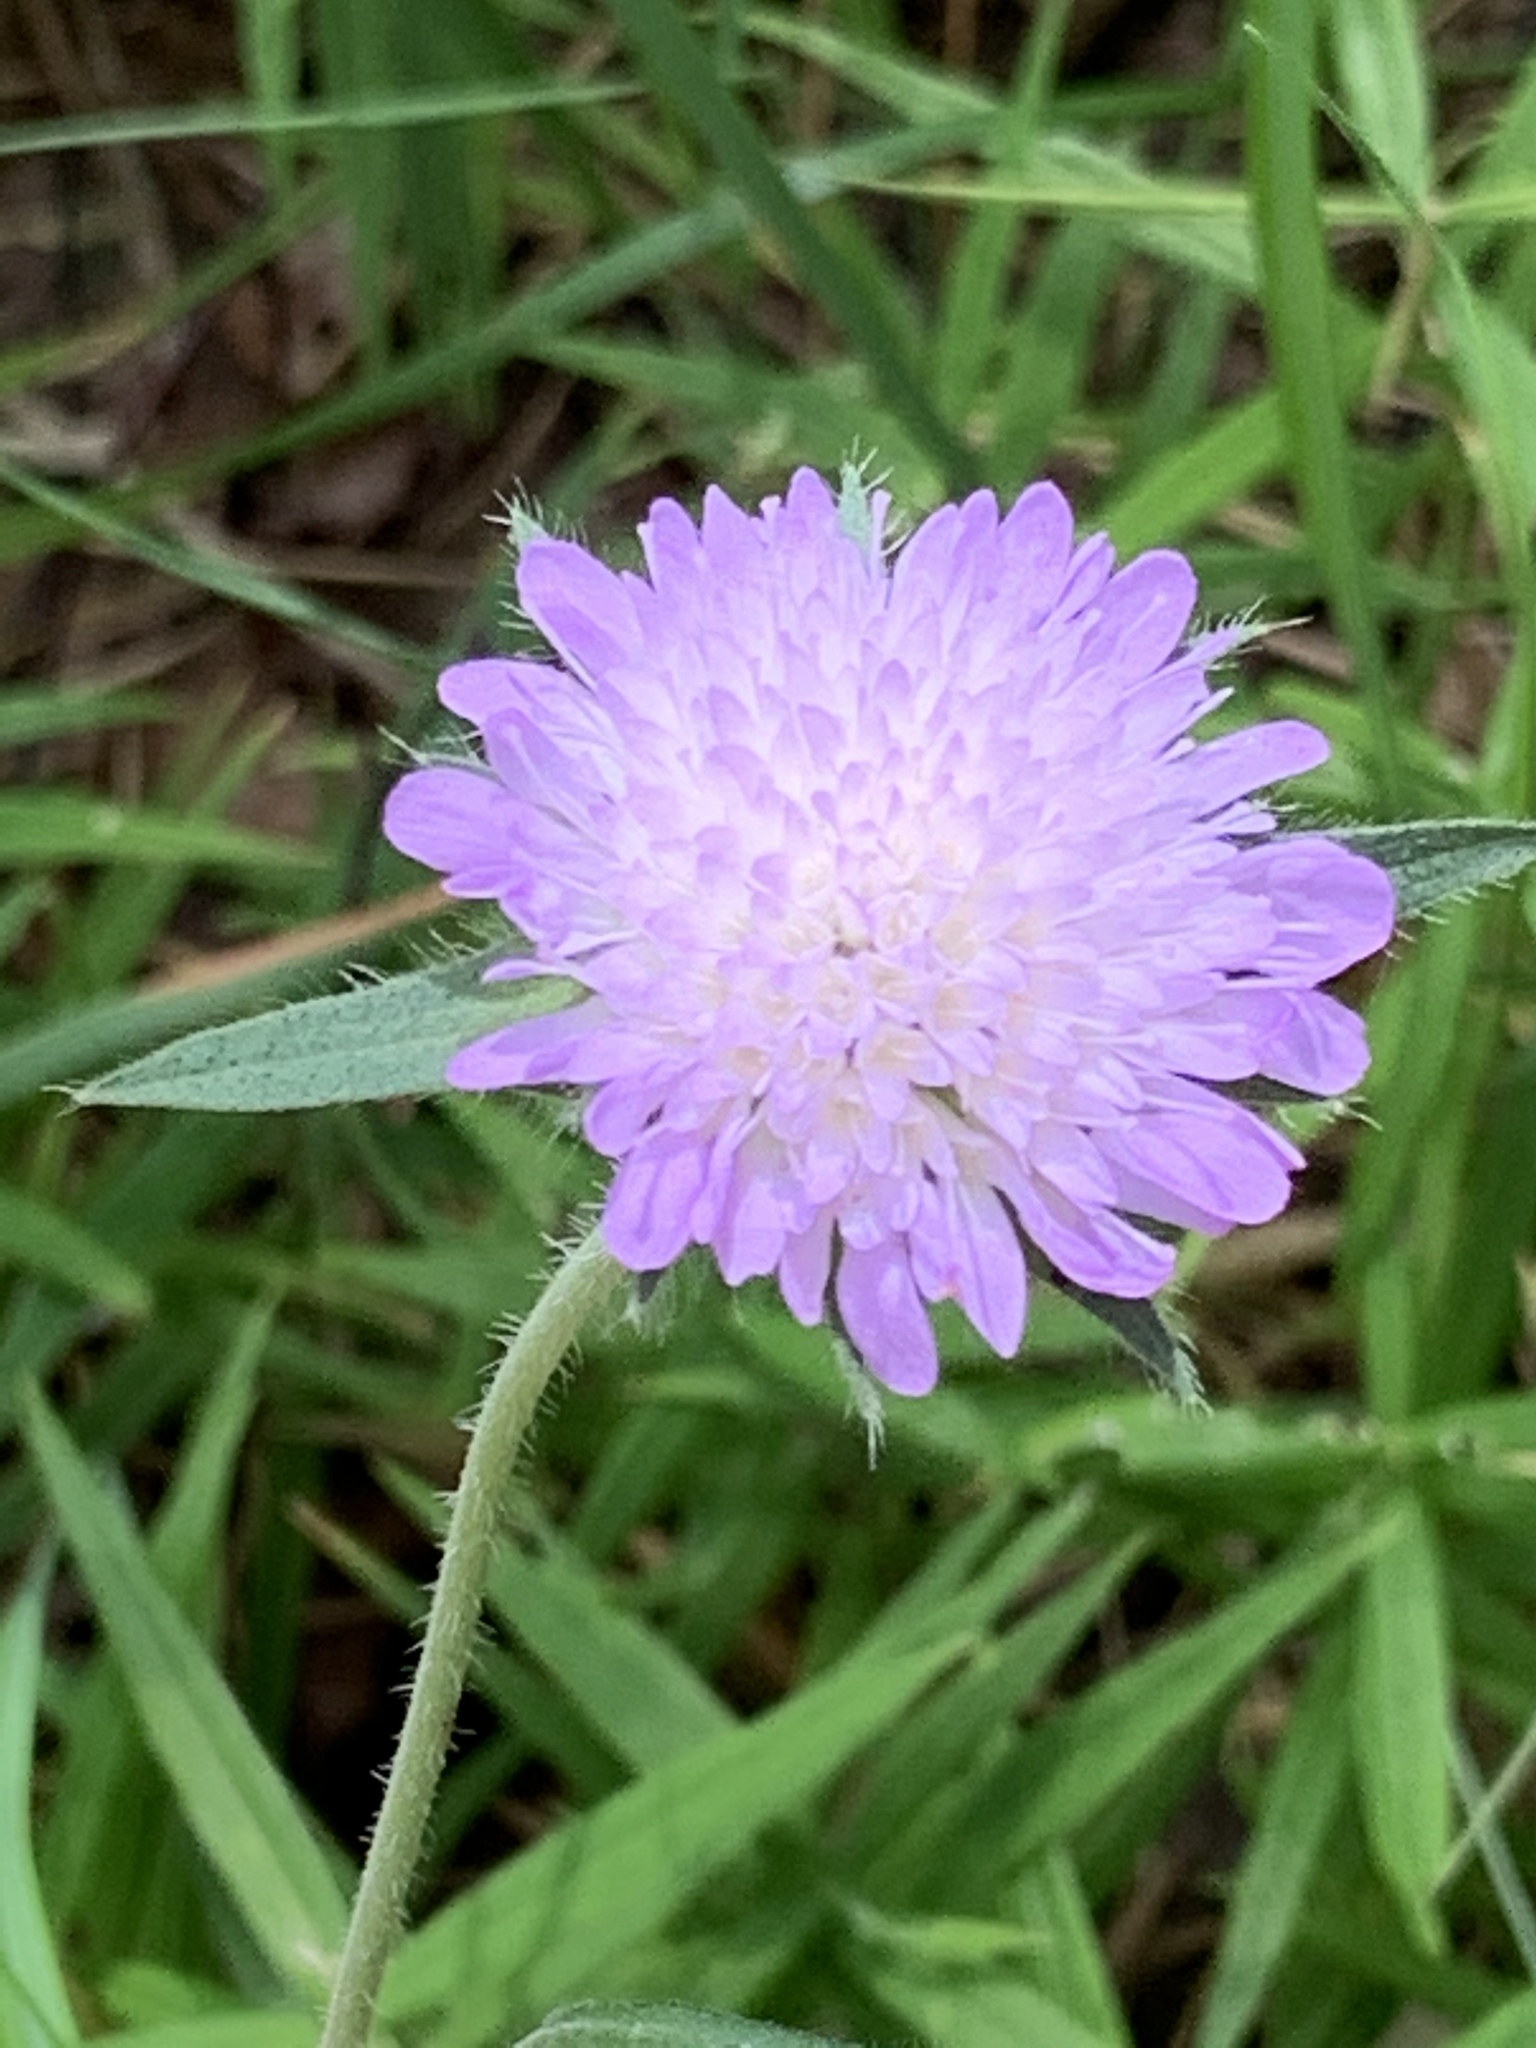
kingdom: Plantae
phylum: Tracheophyta
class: Magnoliopsida
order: Dipsacales
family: Caprifoliaceae
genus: Knautia
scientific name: Knautia arvensis
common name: Field scabiosa
